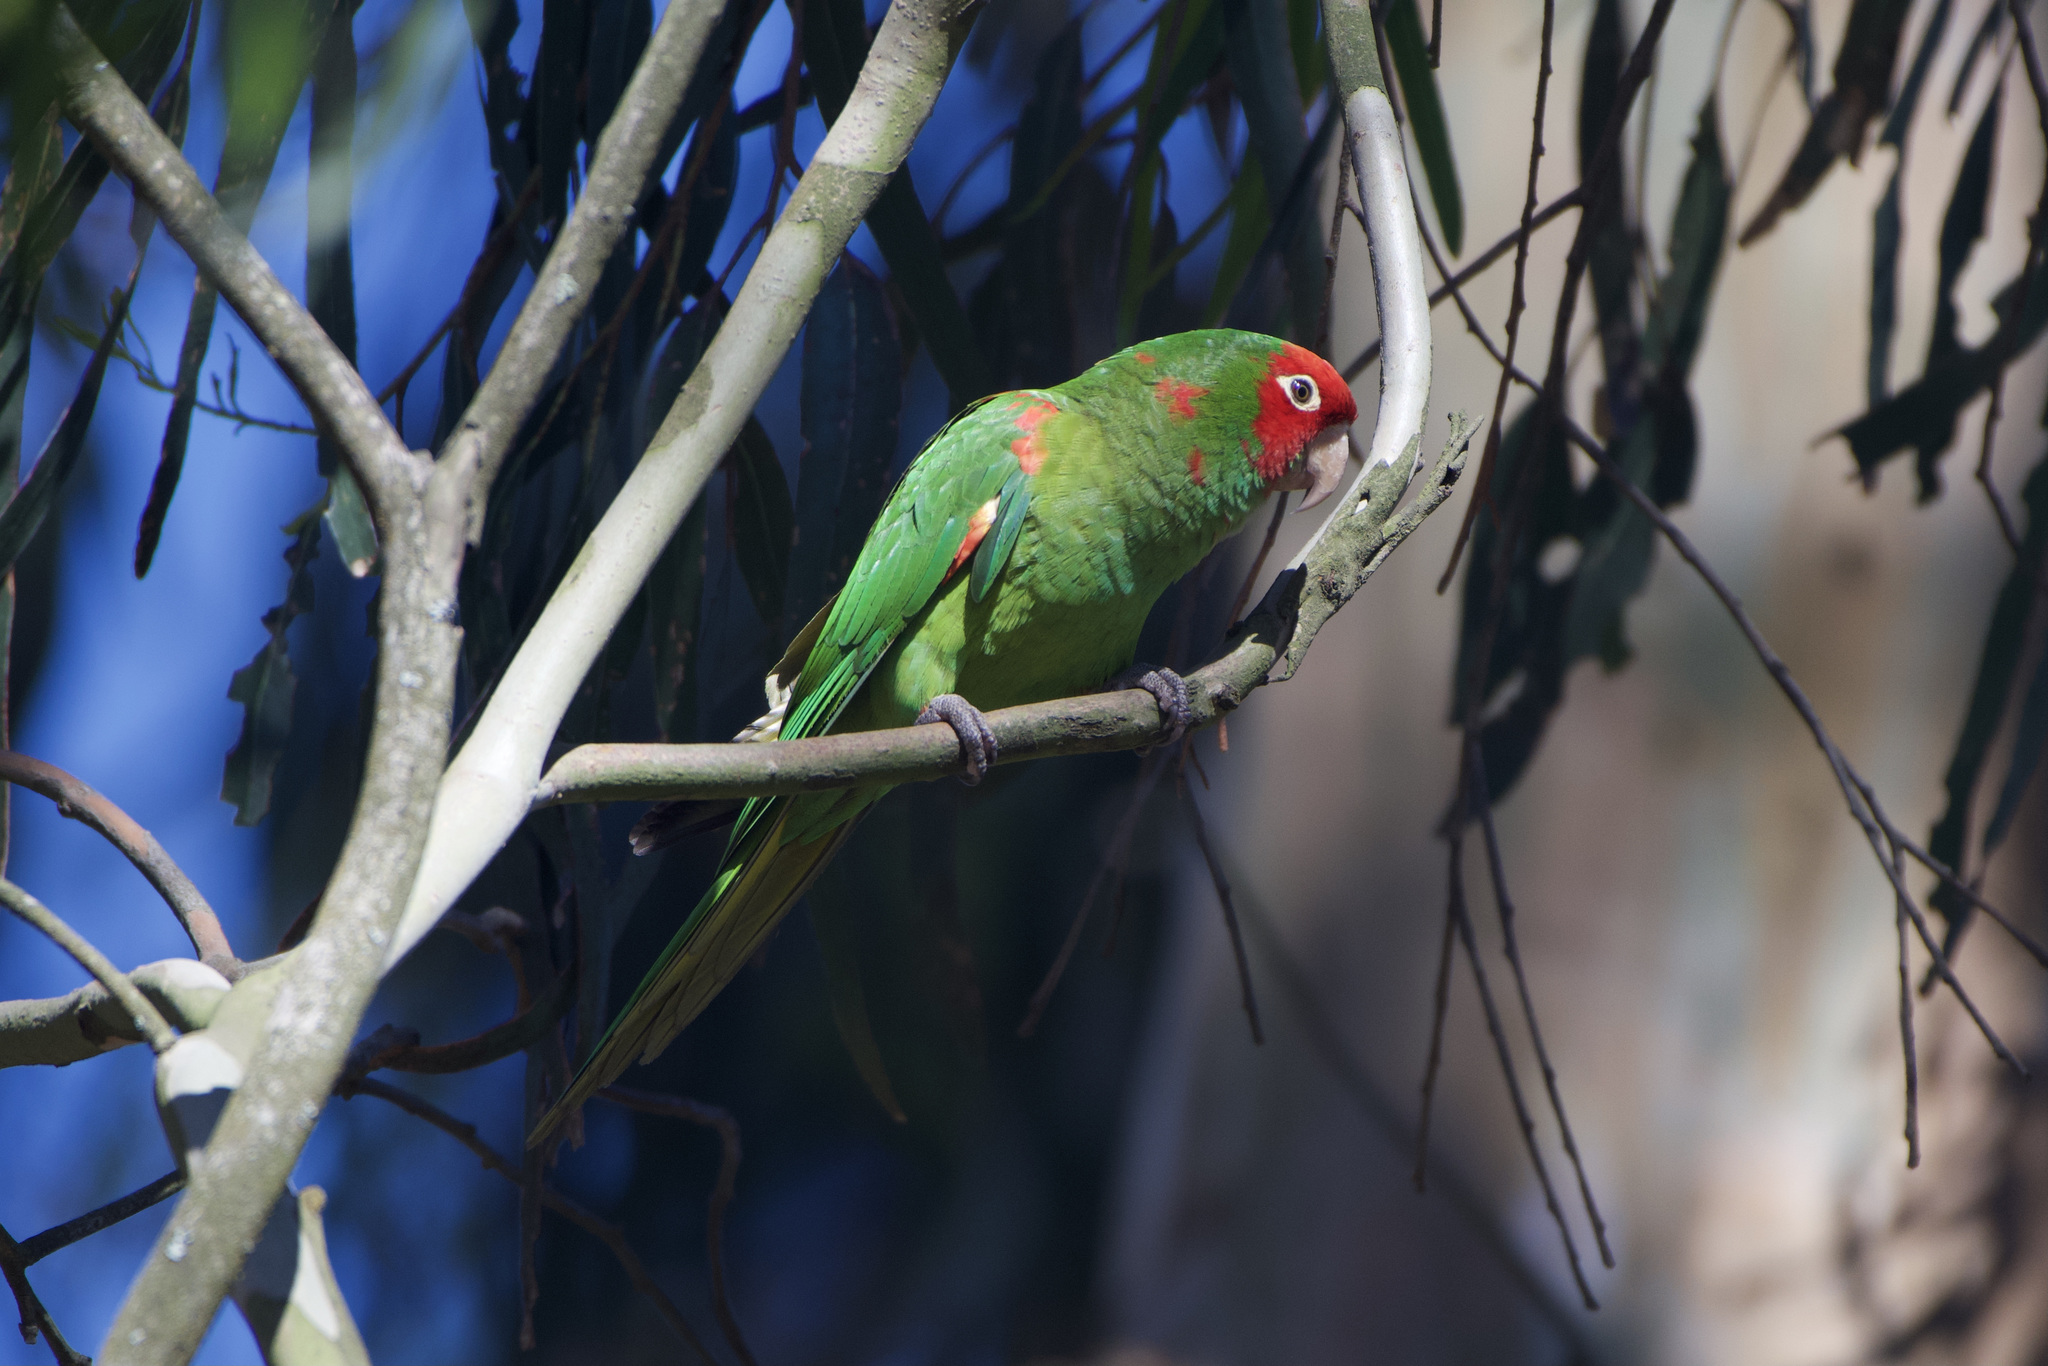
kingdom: Animalia
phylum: Chordata
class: Aves
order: Psittaciformes
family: Psittacidae
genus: Aratinga
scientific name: Aratinga erythrogenys
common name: Red-masked parakeet
